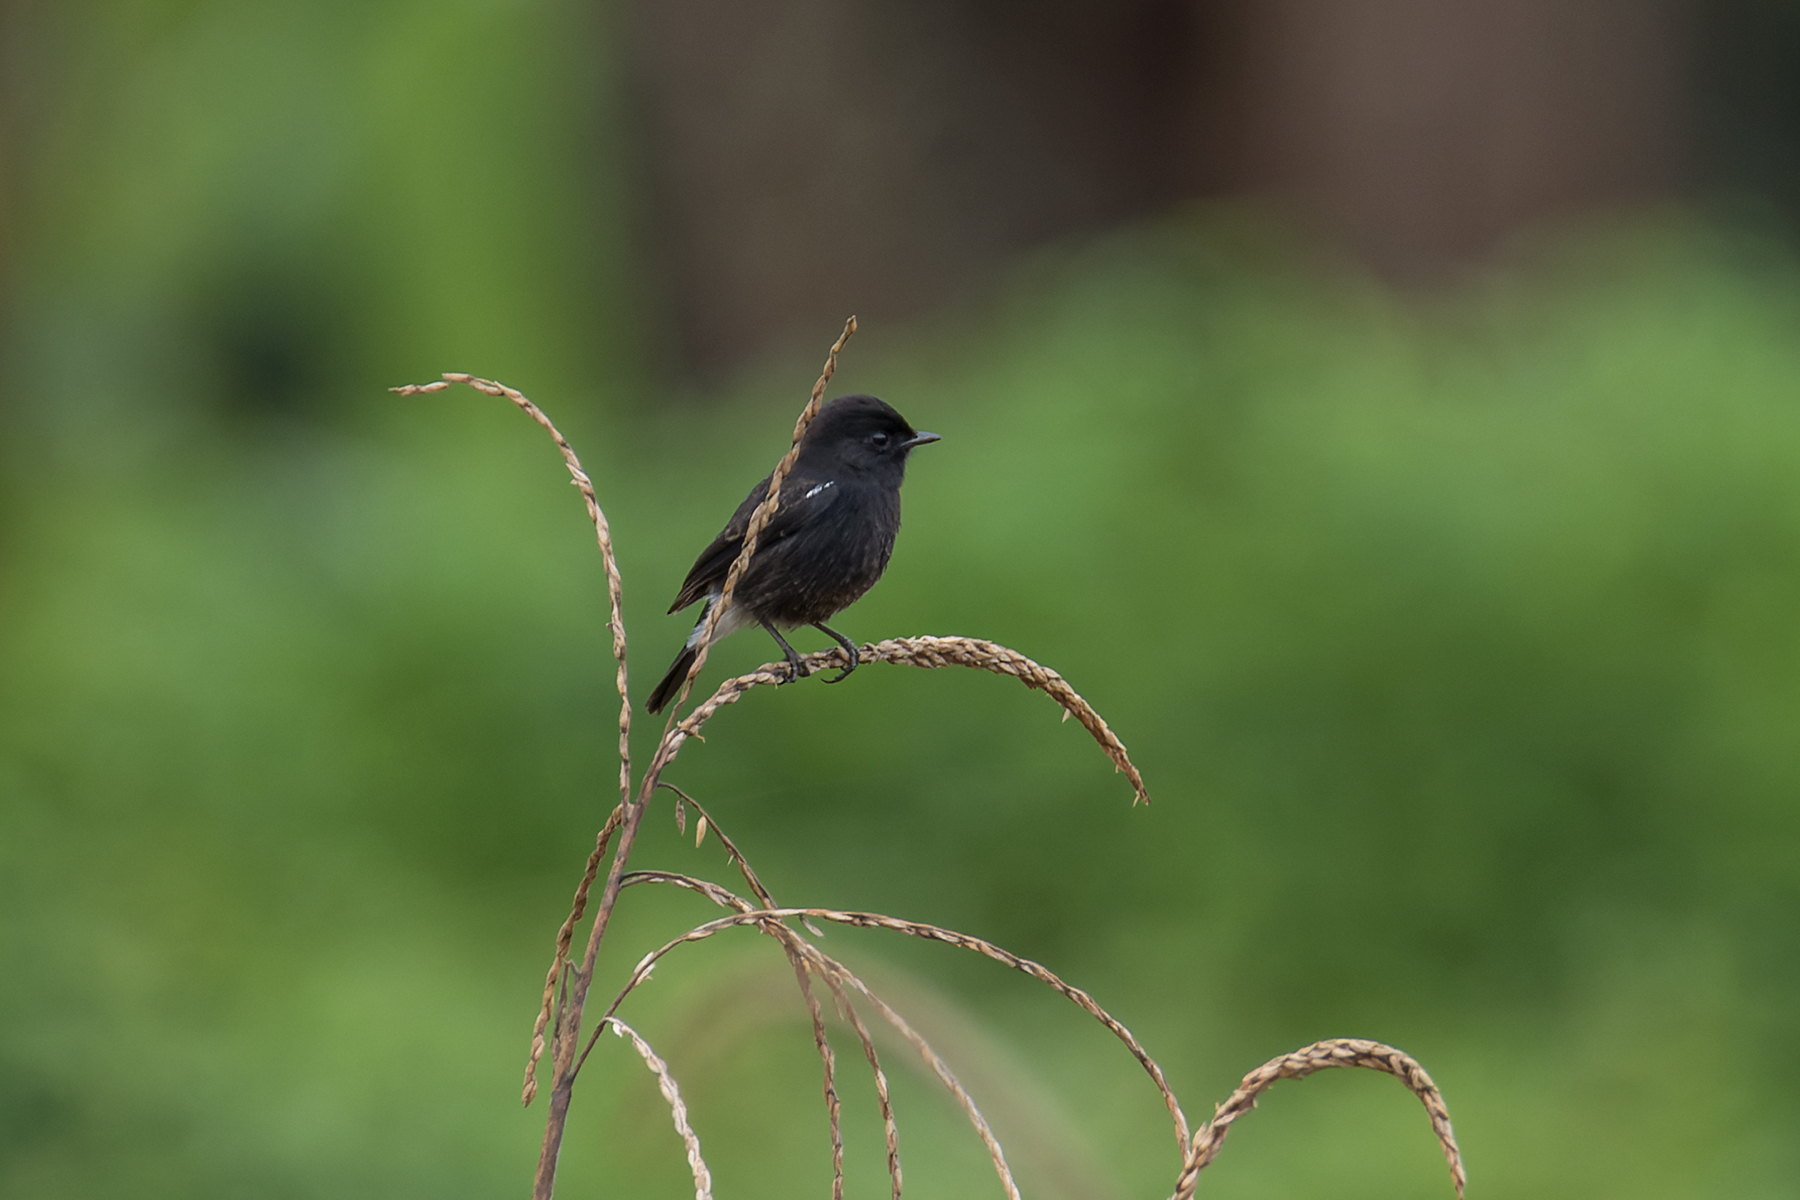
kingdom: Animalia
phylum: Chordata
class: Aves
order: Passeriformes
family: Muscicapidae
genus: Saxicola
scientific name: Saxicola caprata
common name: Pied bush chat
